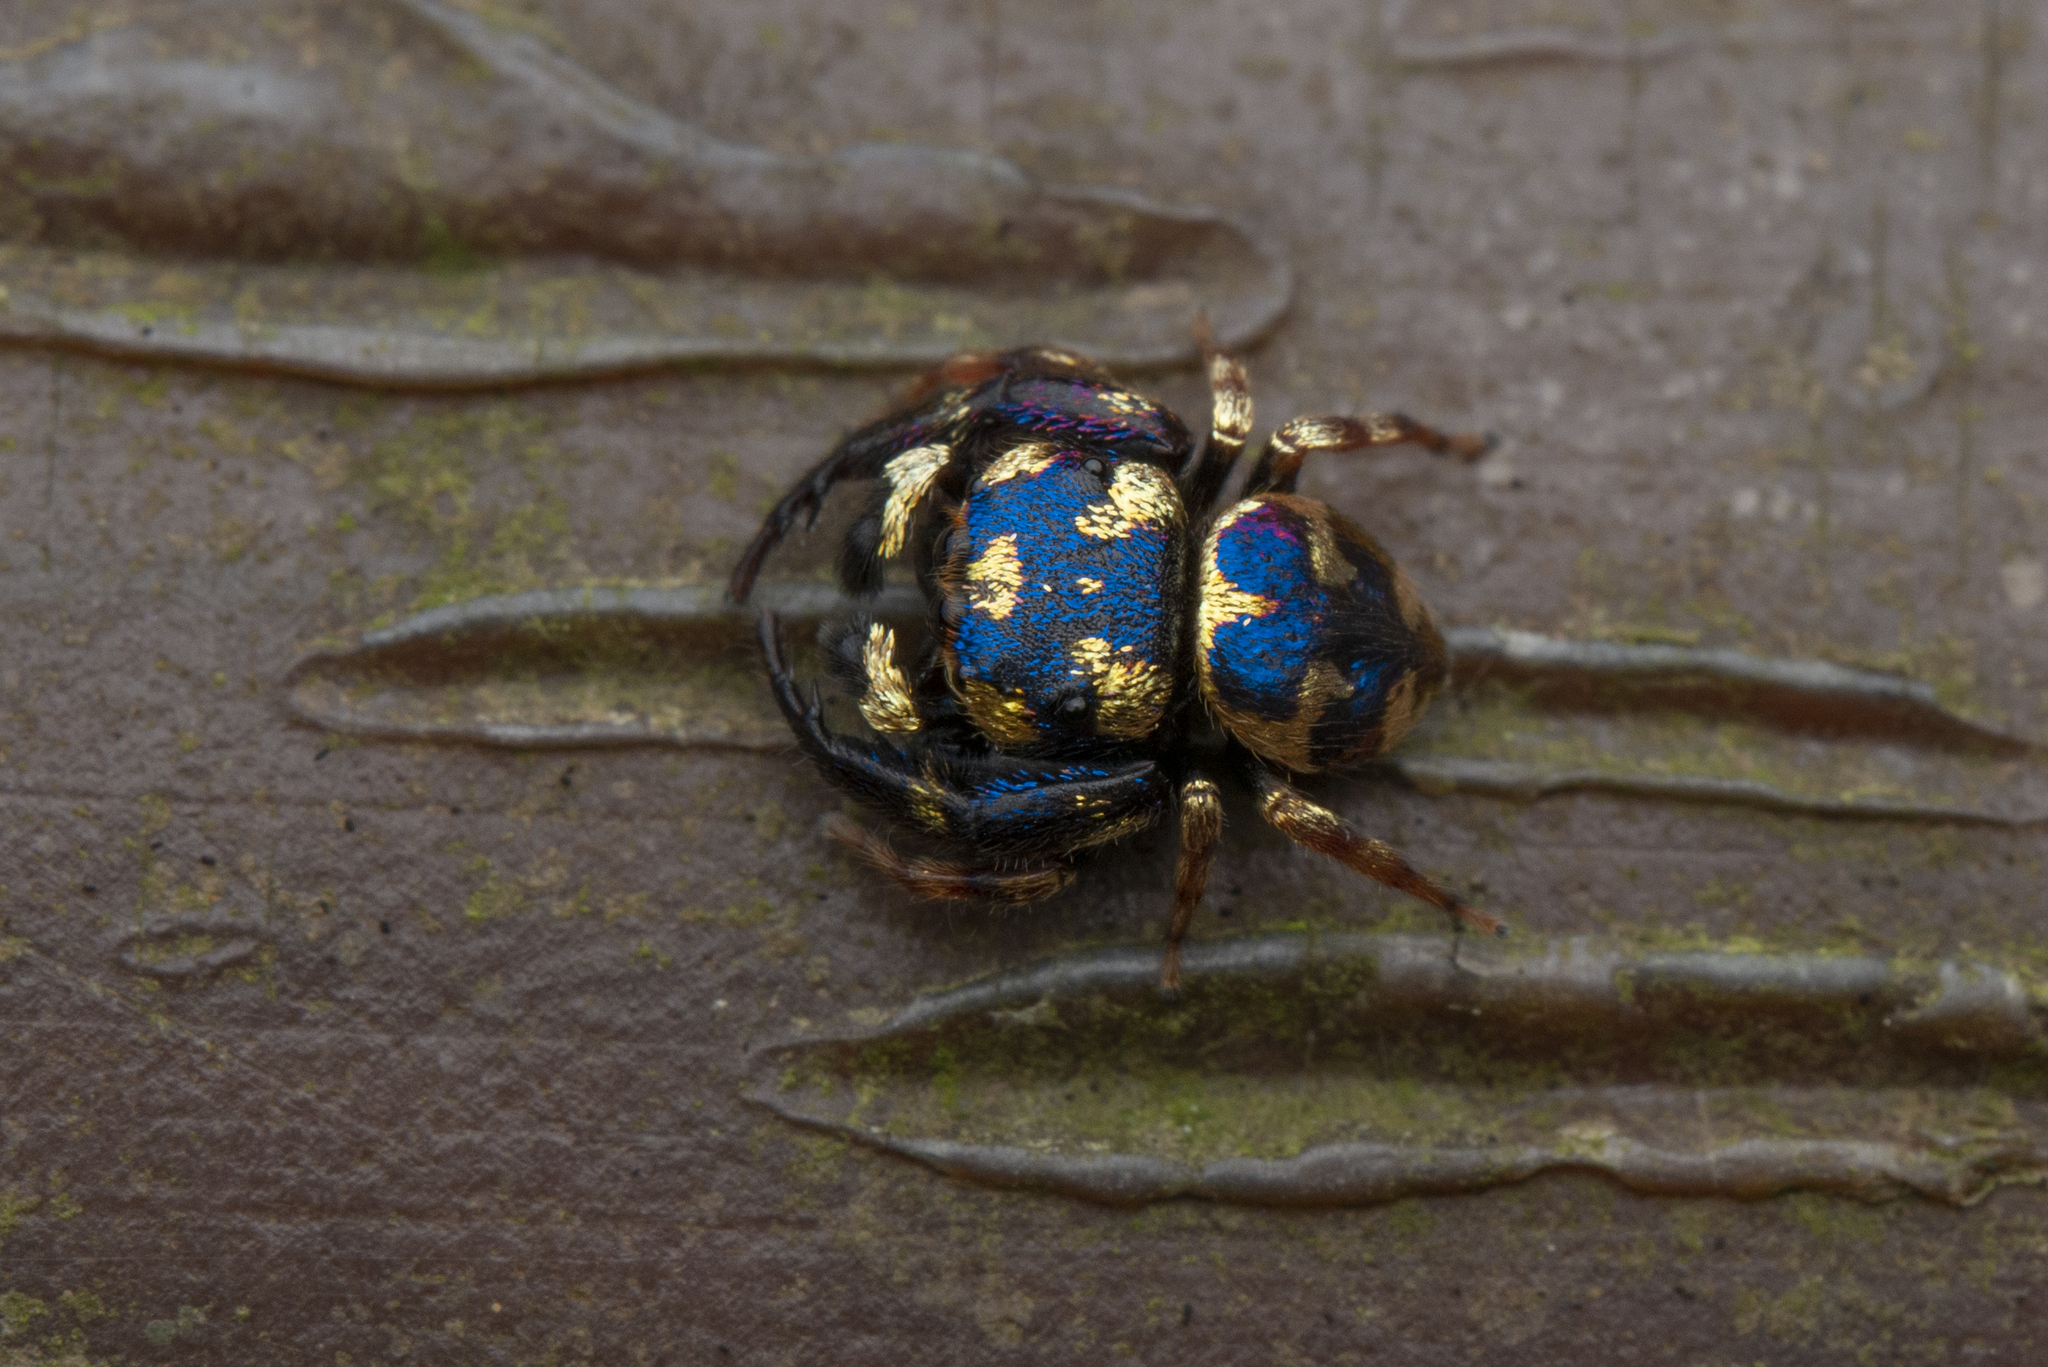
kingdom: Animalia
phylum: Arthropoda
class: Arachnida
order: Araneae
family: Salticidae
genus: Irura
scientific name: Irura bidenticulata
